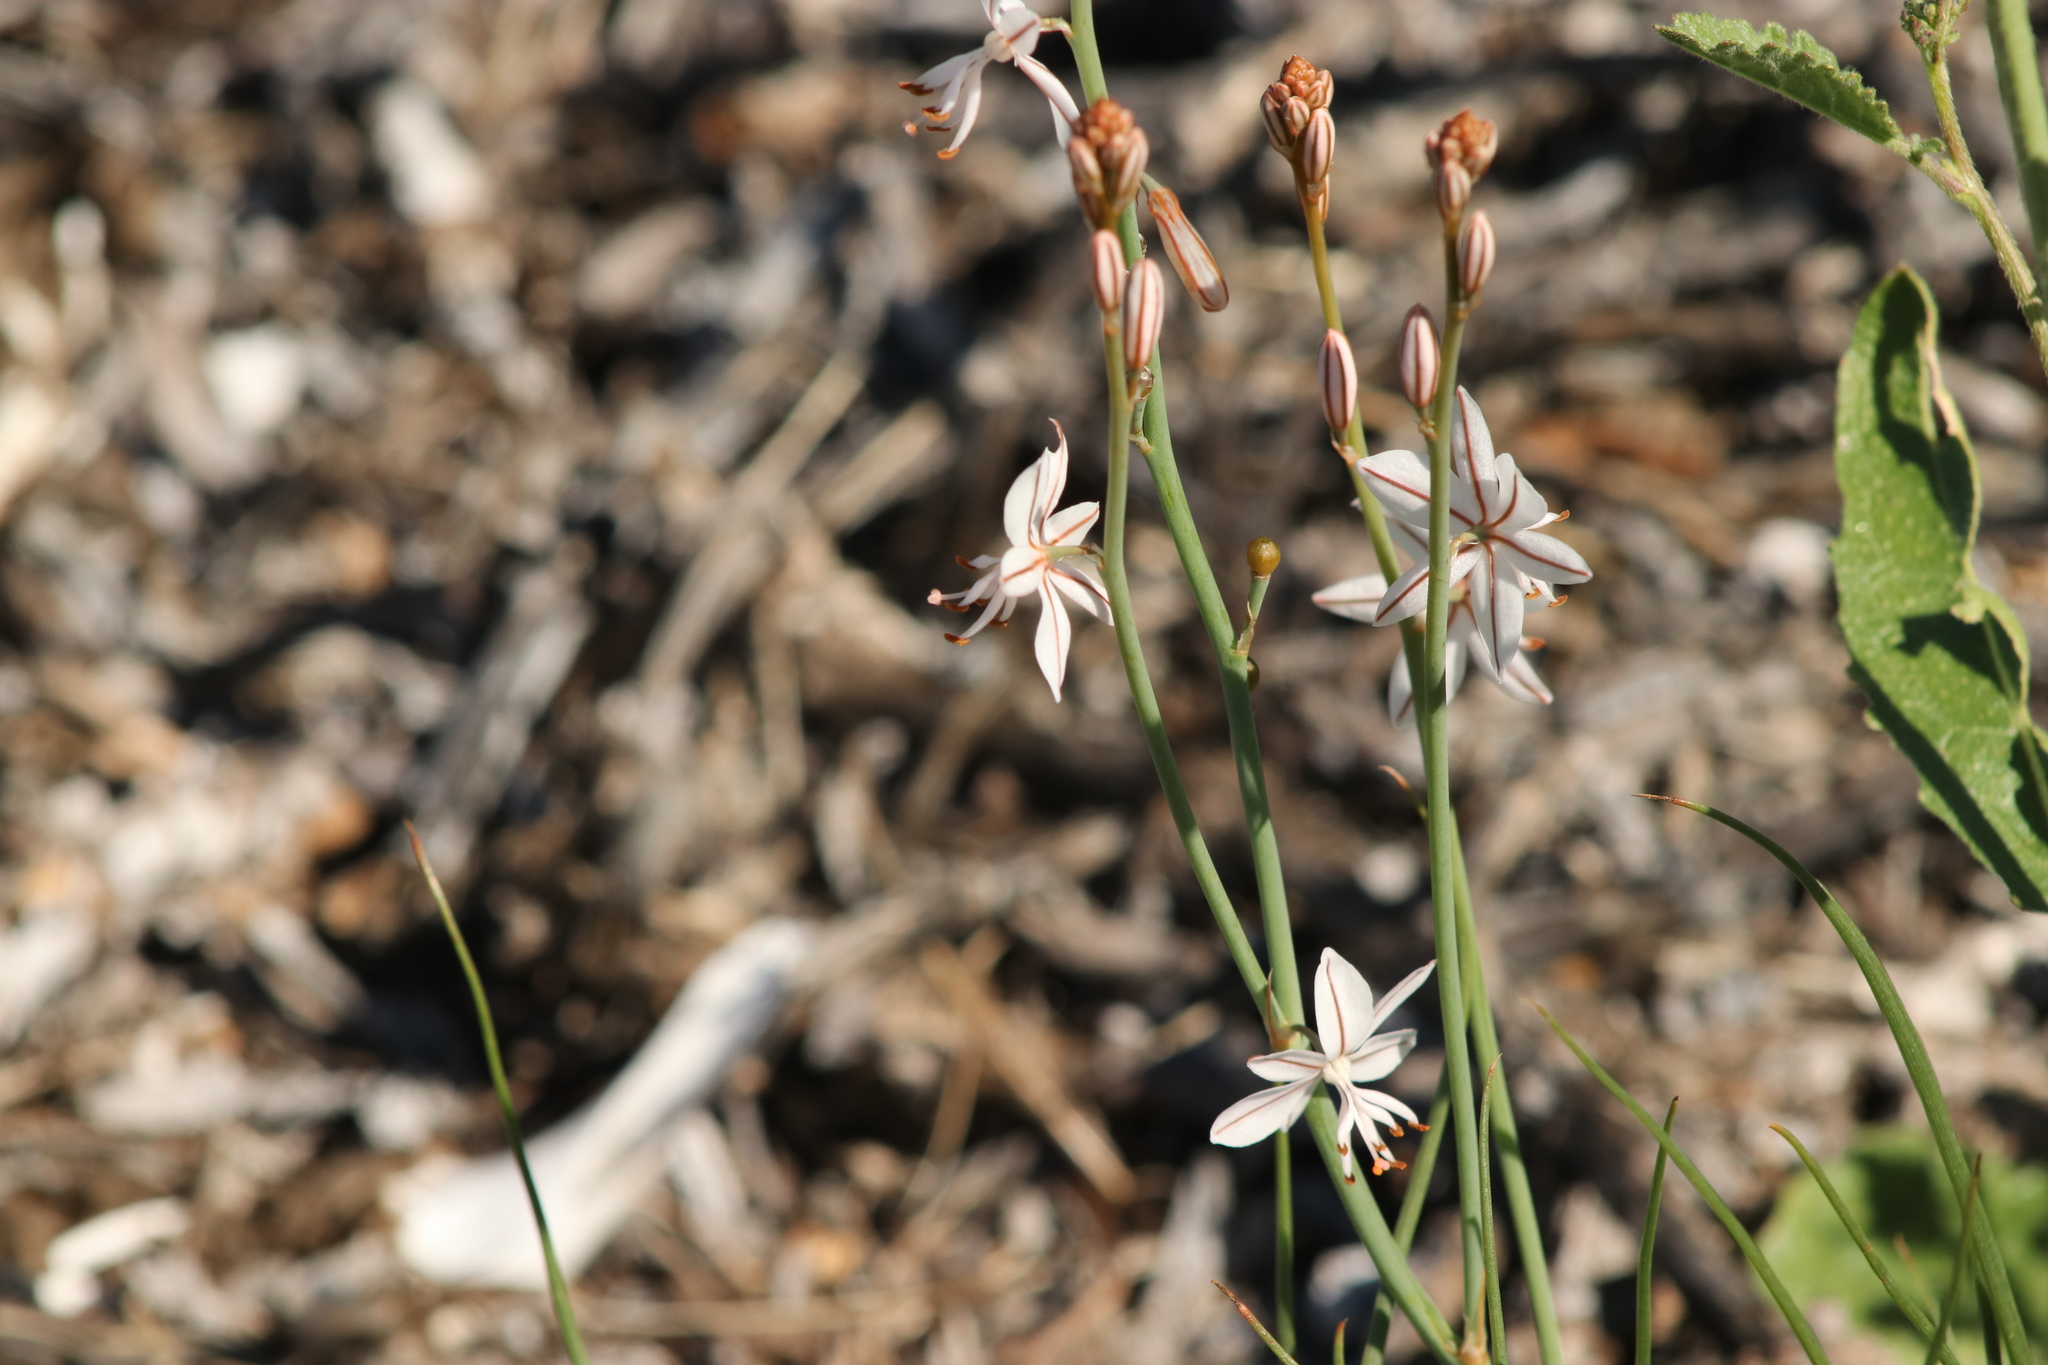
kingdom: Plantae
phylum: Tracheophyta
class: Liliopsida
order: Asparagales
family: Asphodelaceae
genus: Asphodelus
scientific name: Asphodelus fistulosus
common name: Onionweed
